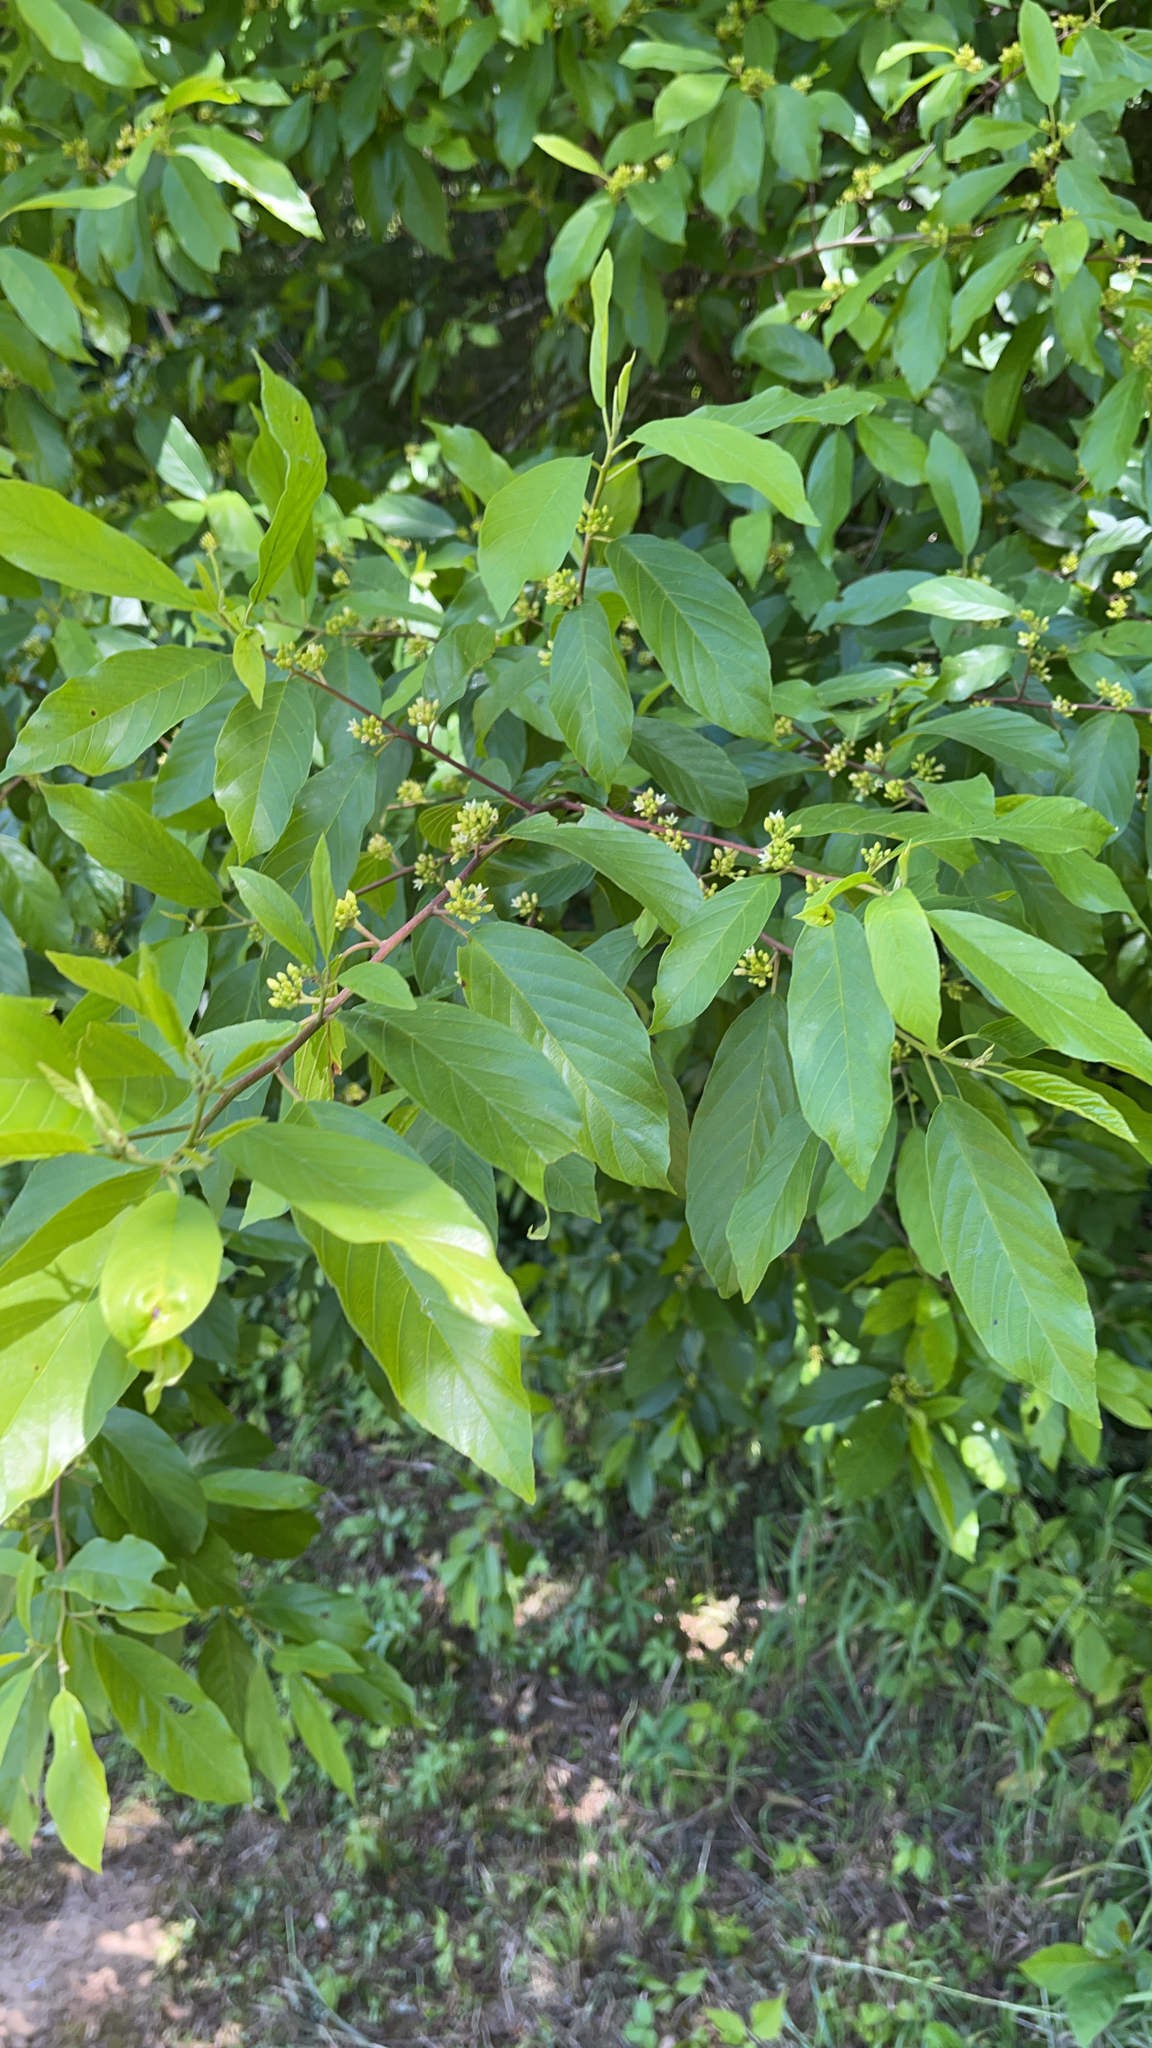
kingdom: Plantae
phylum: Tracheophyta
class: Magnoliopsida
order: Rosales
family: Rhamnaceae
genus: Frangula
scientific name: Frangula caroliniana
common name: Carolina buckthorn
